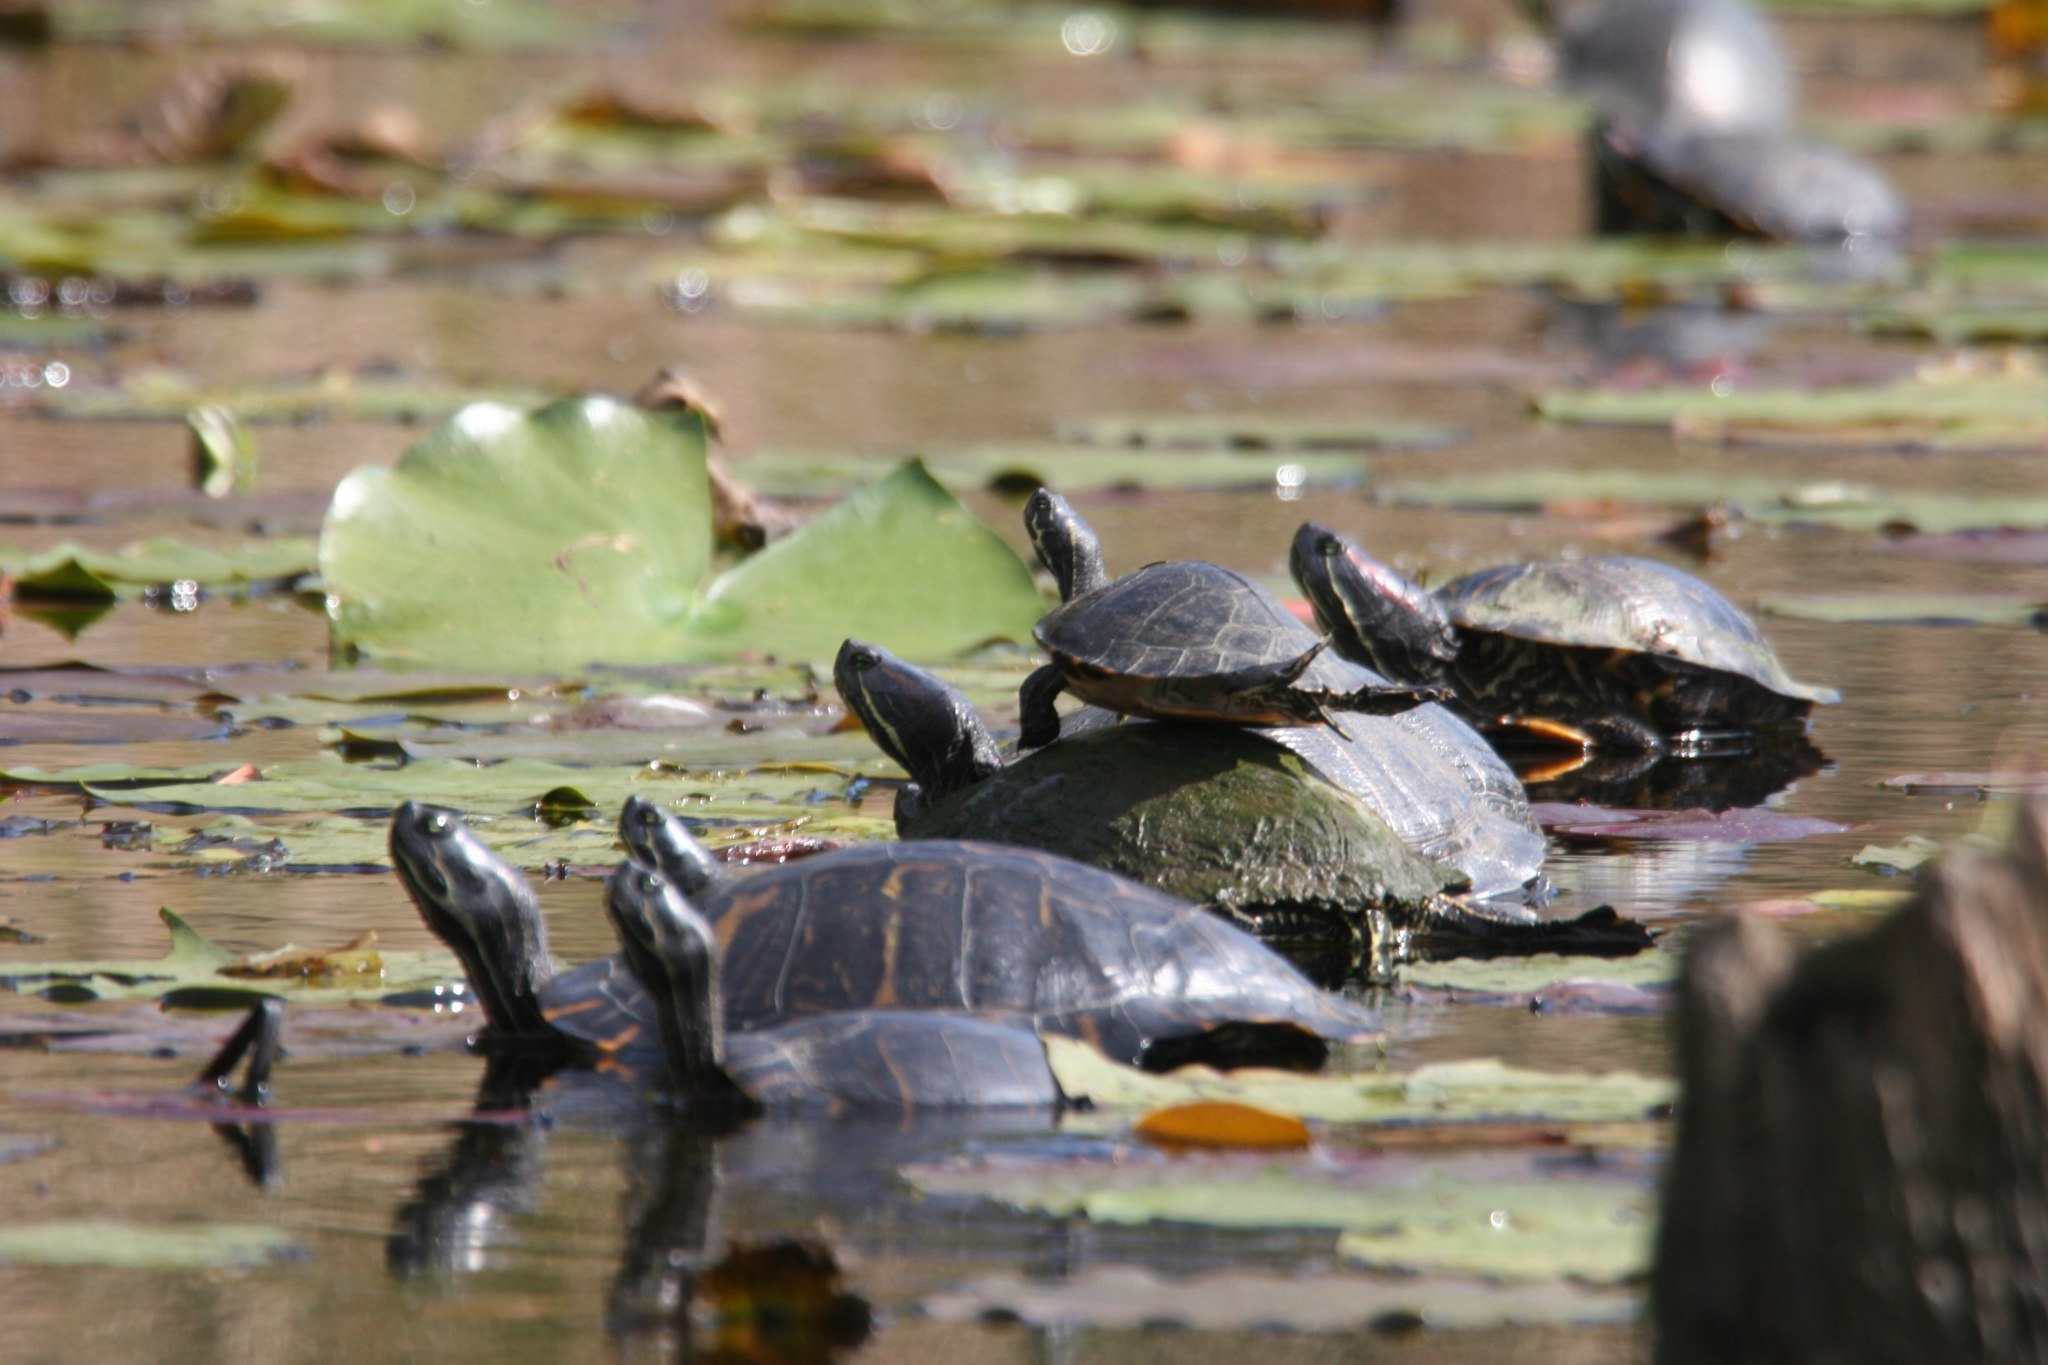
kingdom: Animalia
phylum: Chordata
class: Testudines
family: Emydidae
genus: Trachemys
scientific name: Trachemys scripta
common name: Slider
